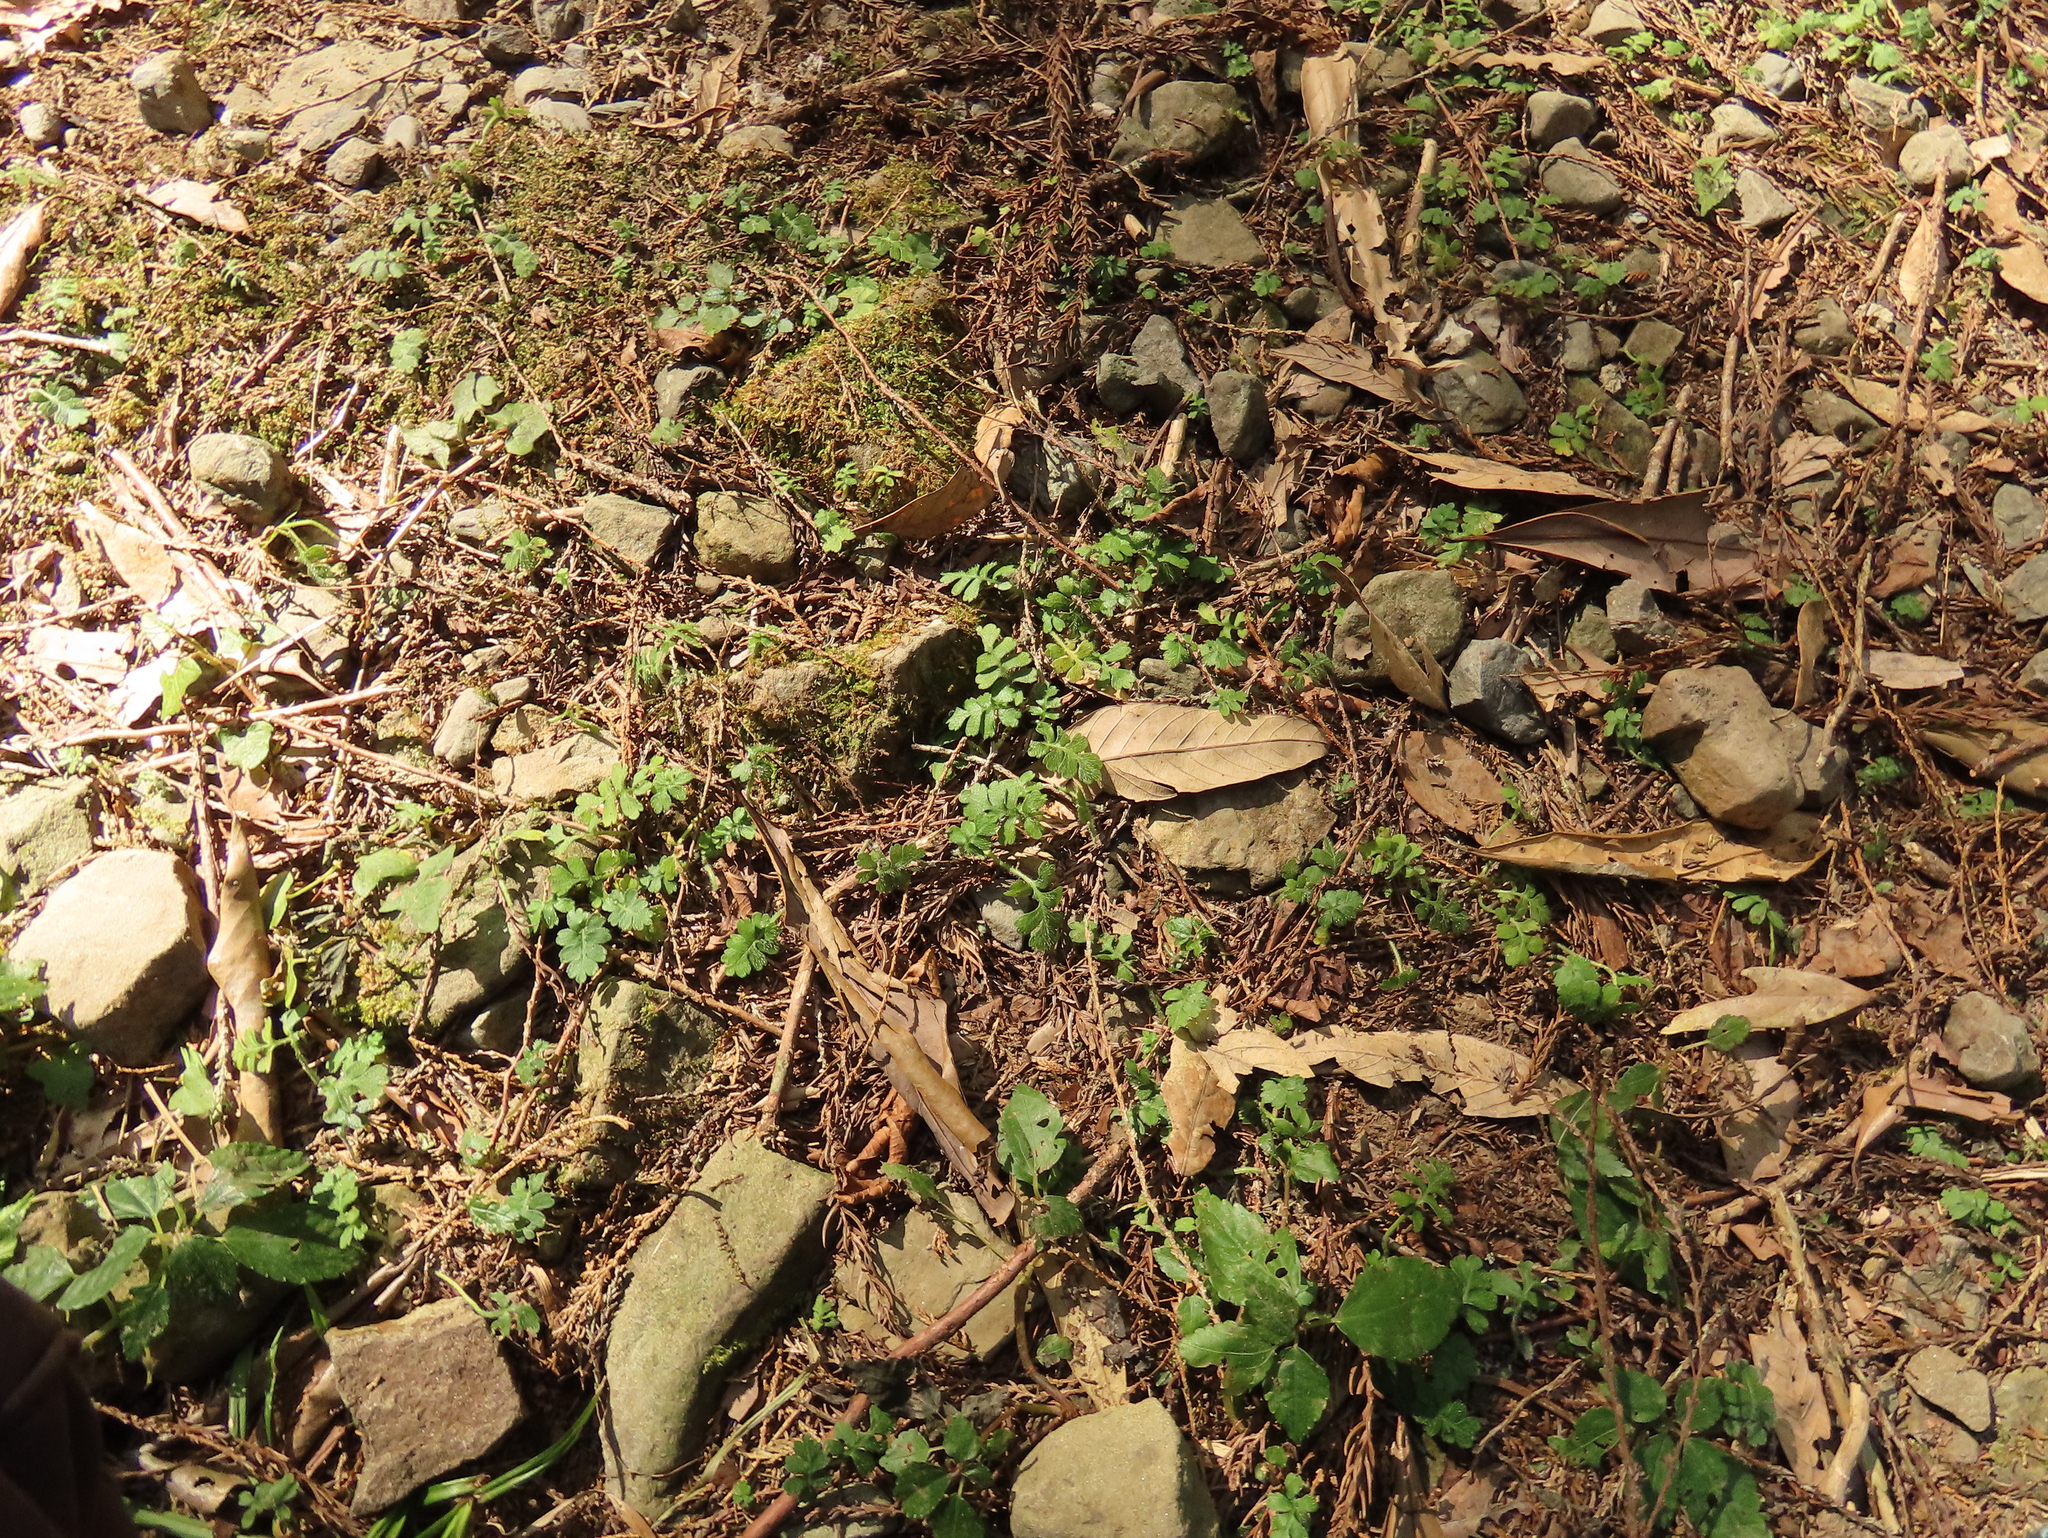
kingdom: Plantae
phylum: Tracheophyta
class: Magnoliopsida
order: Lamiales
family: Plantaginaceae
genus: Ellisiophyllum
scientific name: Ellisiophyllum pinnatum
